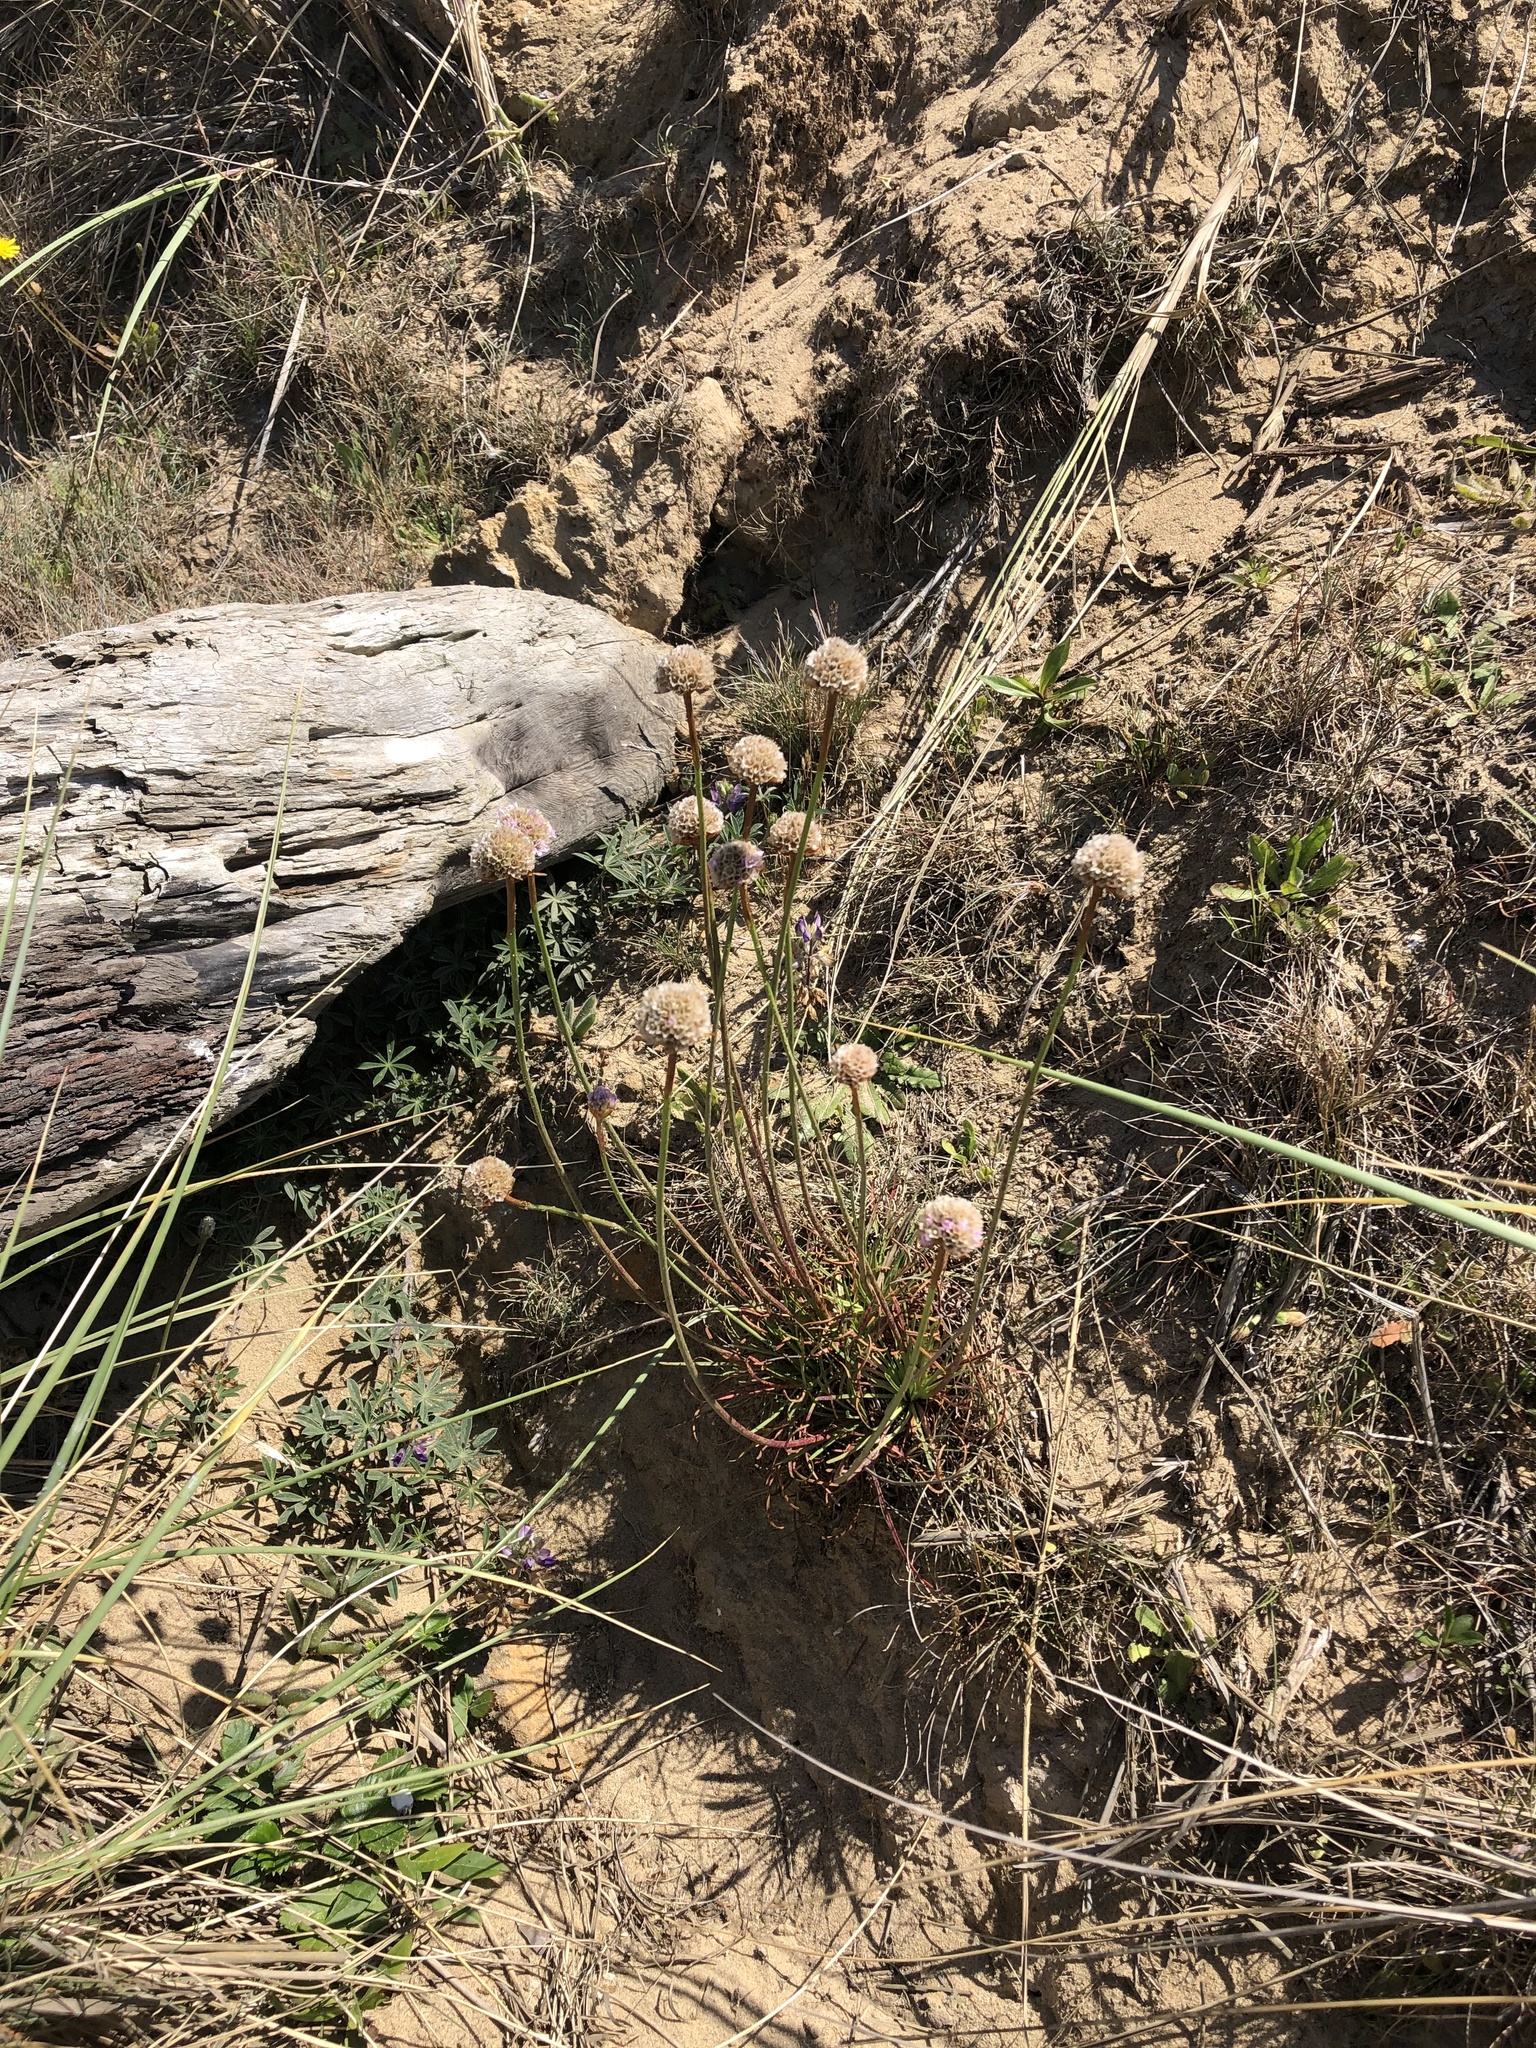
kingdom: Plantae
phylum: Tracheophyta
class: Magnoliopsida
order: Caryophyllales
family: Plumbaginaceae
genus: Armeria
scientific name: Armeria maritima
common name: Thrift
